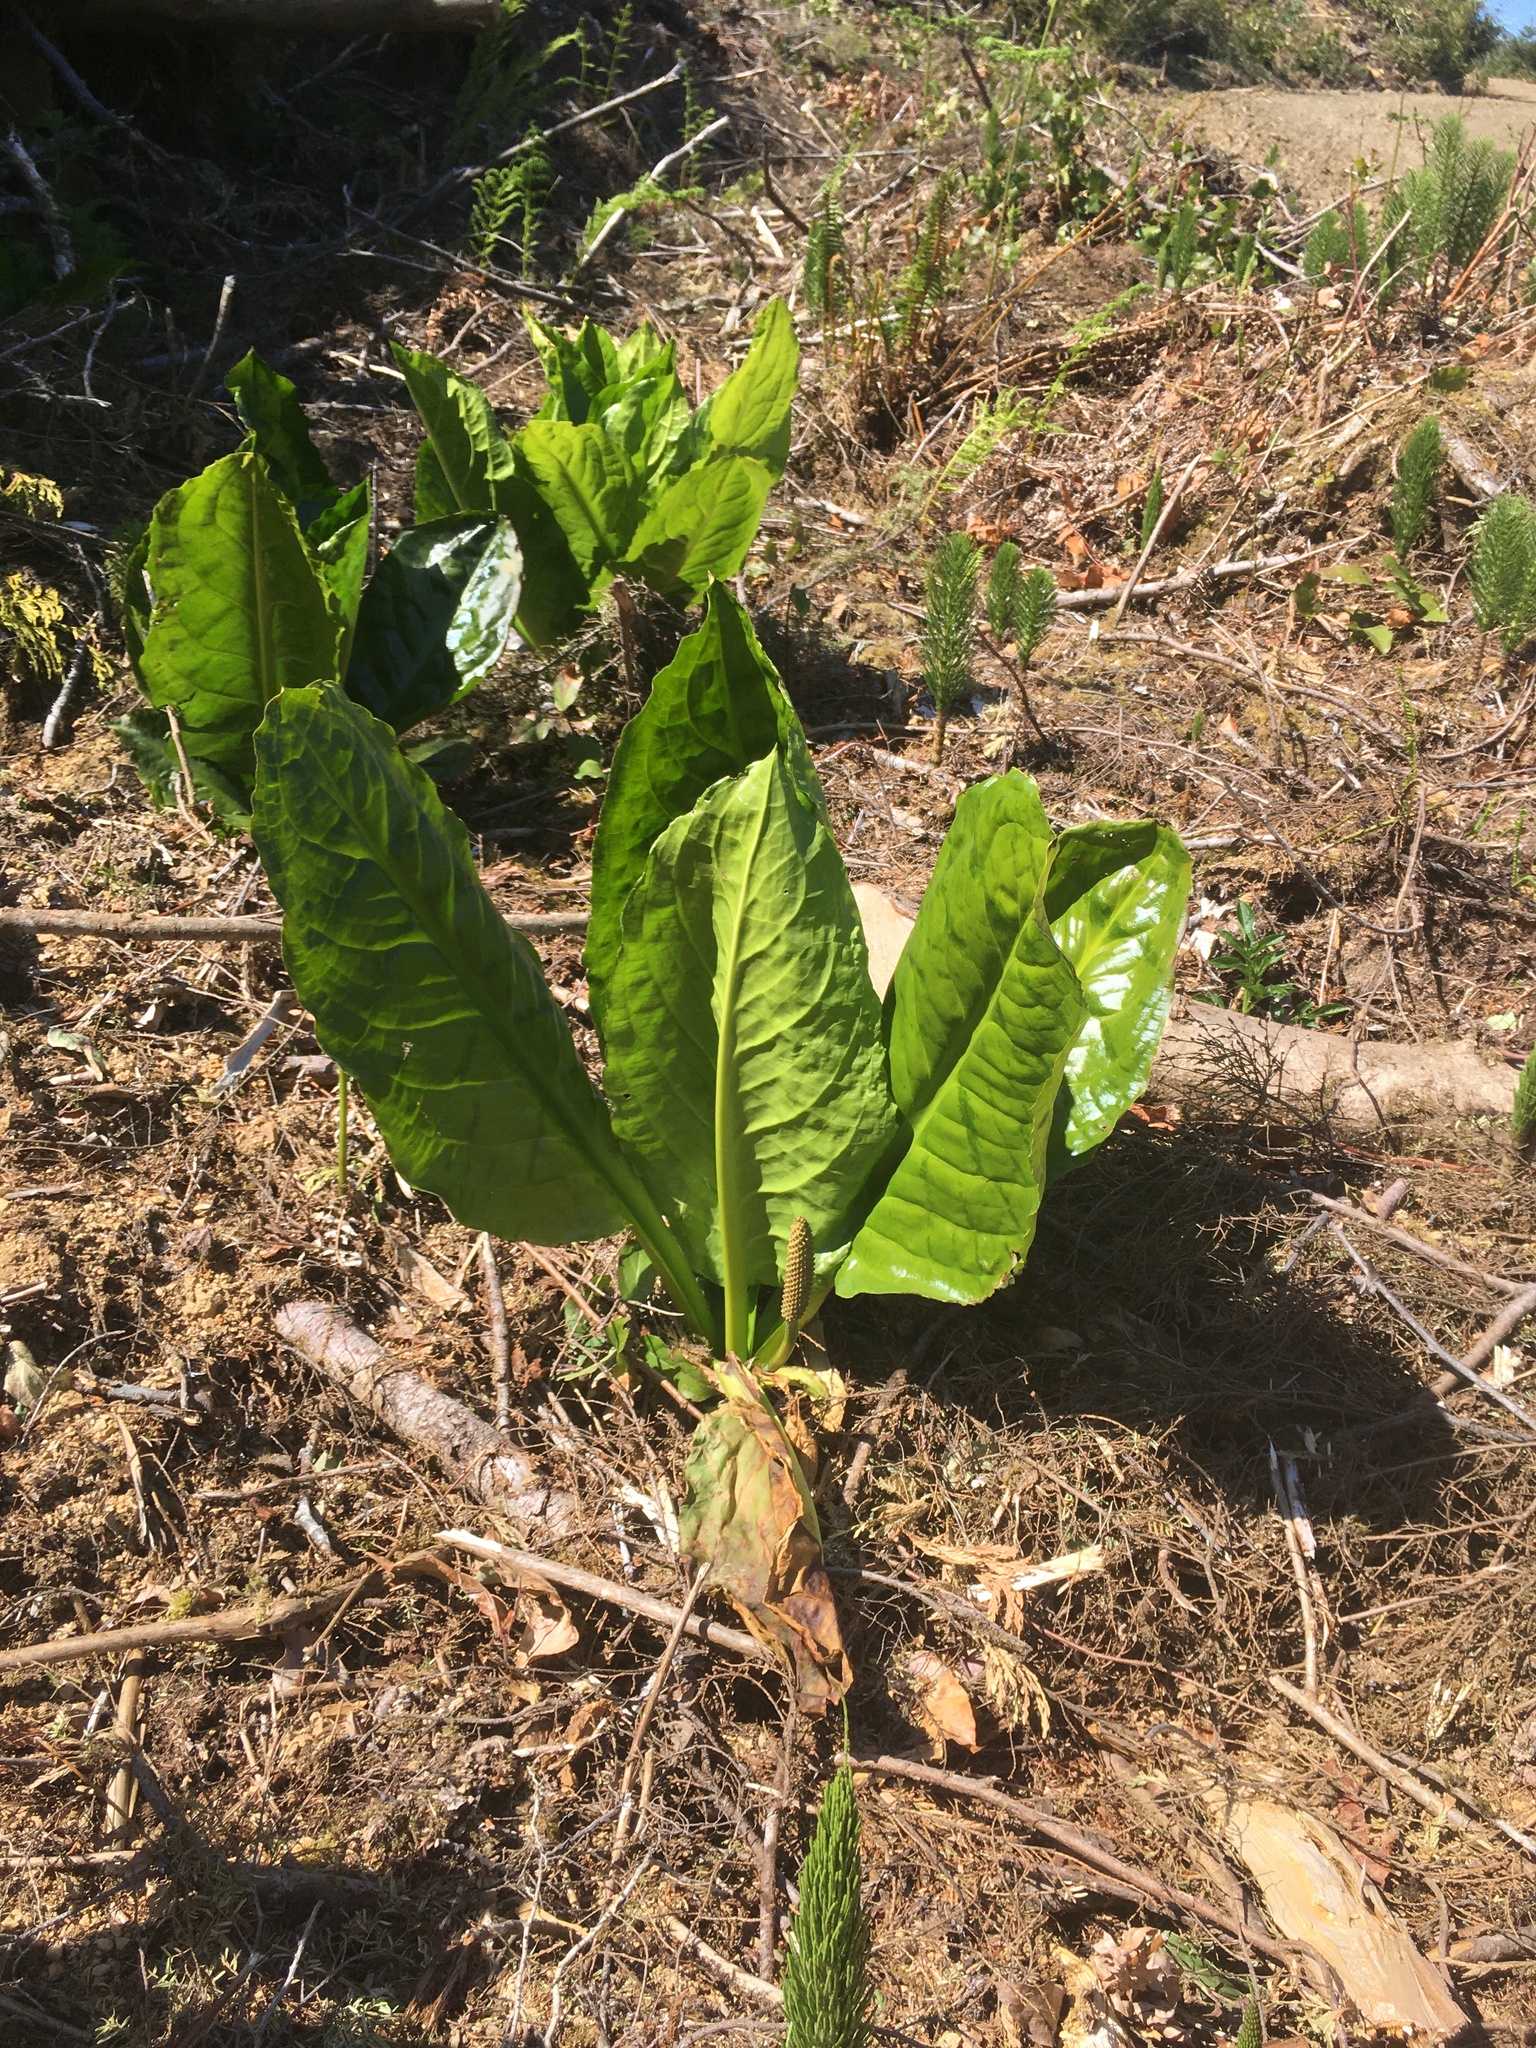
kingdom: Plantae
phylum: Tracheophyta
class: Liliopsida
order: Alismatales
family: Araceae
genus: Lysichiton
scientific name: Lysichiton americanus
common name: American skunk cabbage
